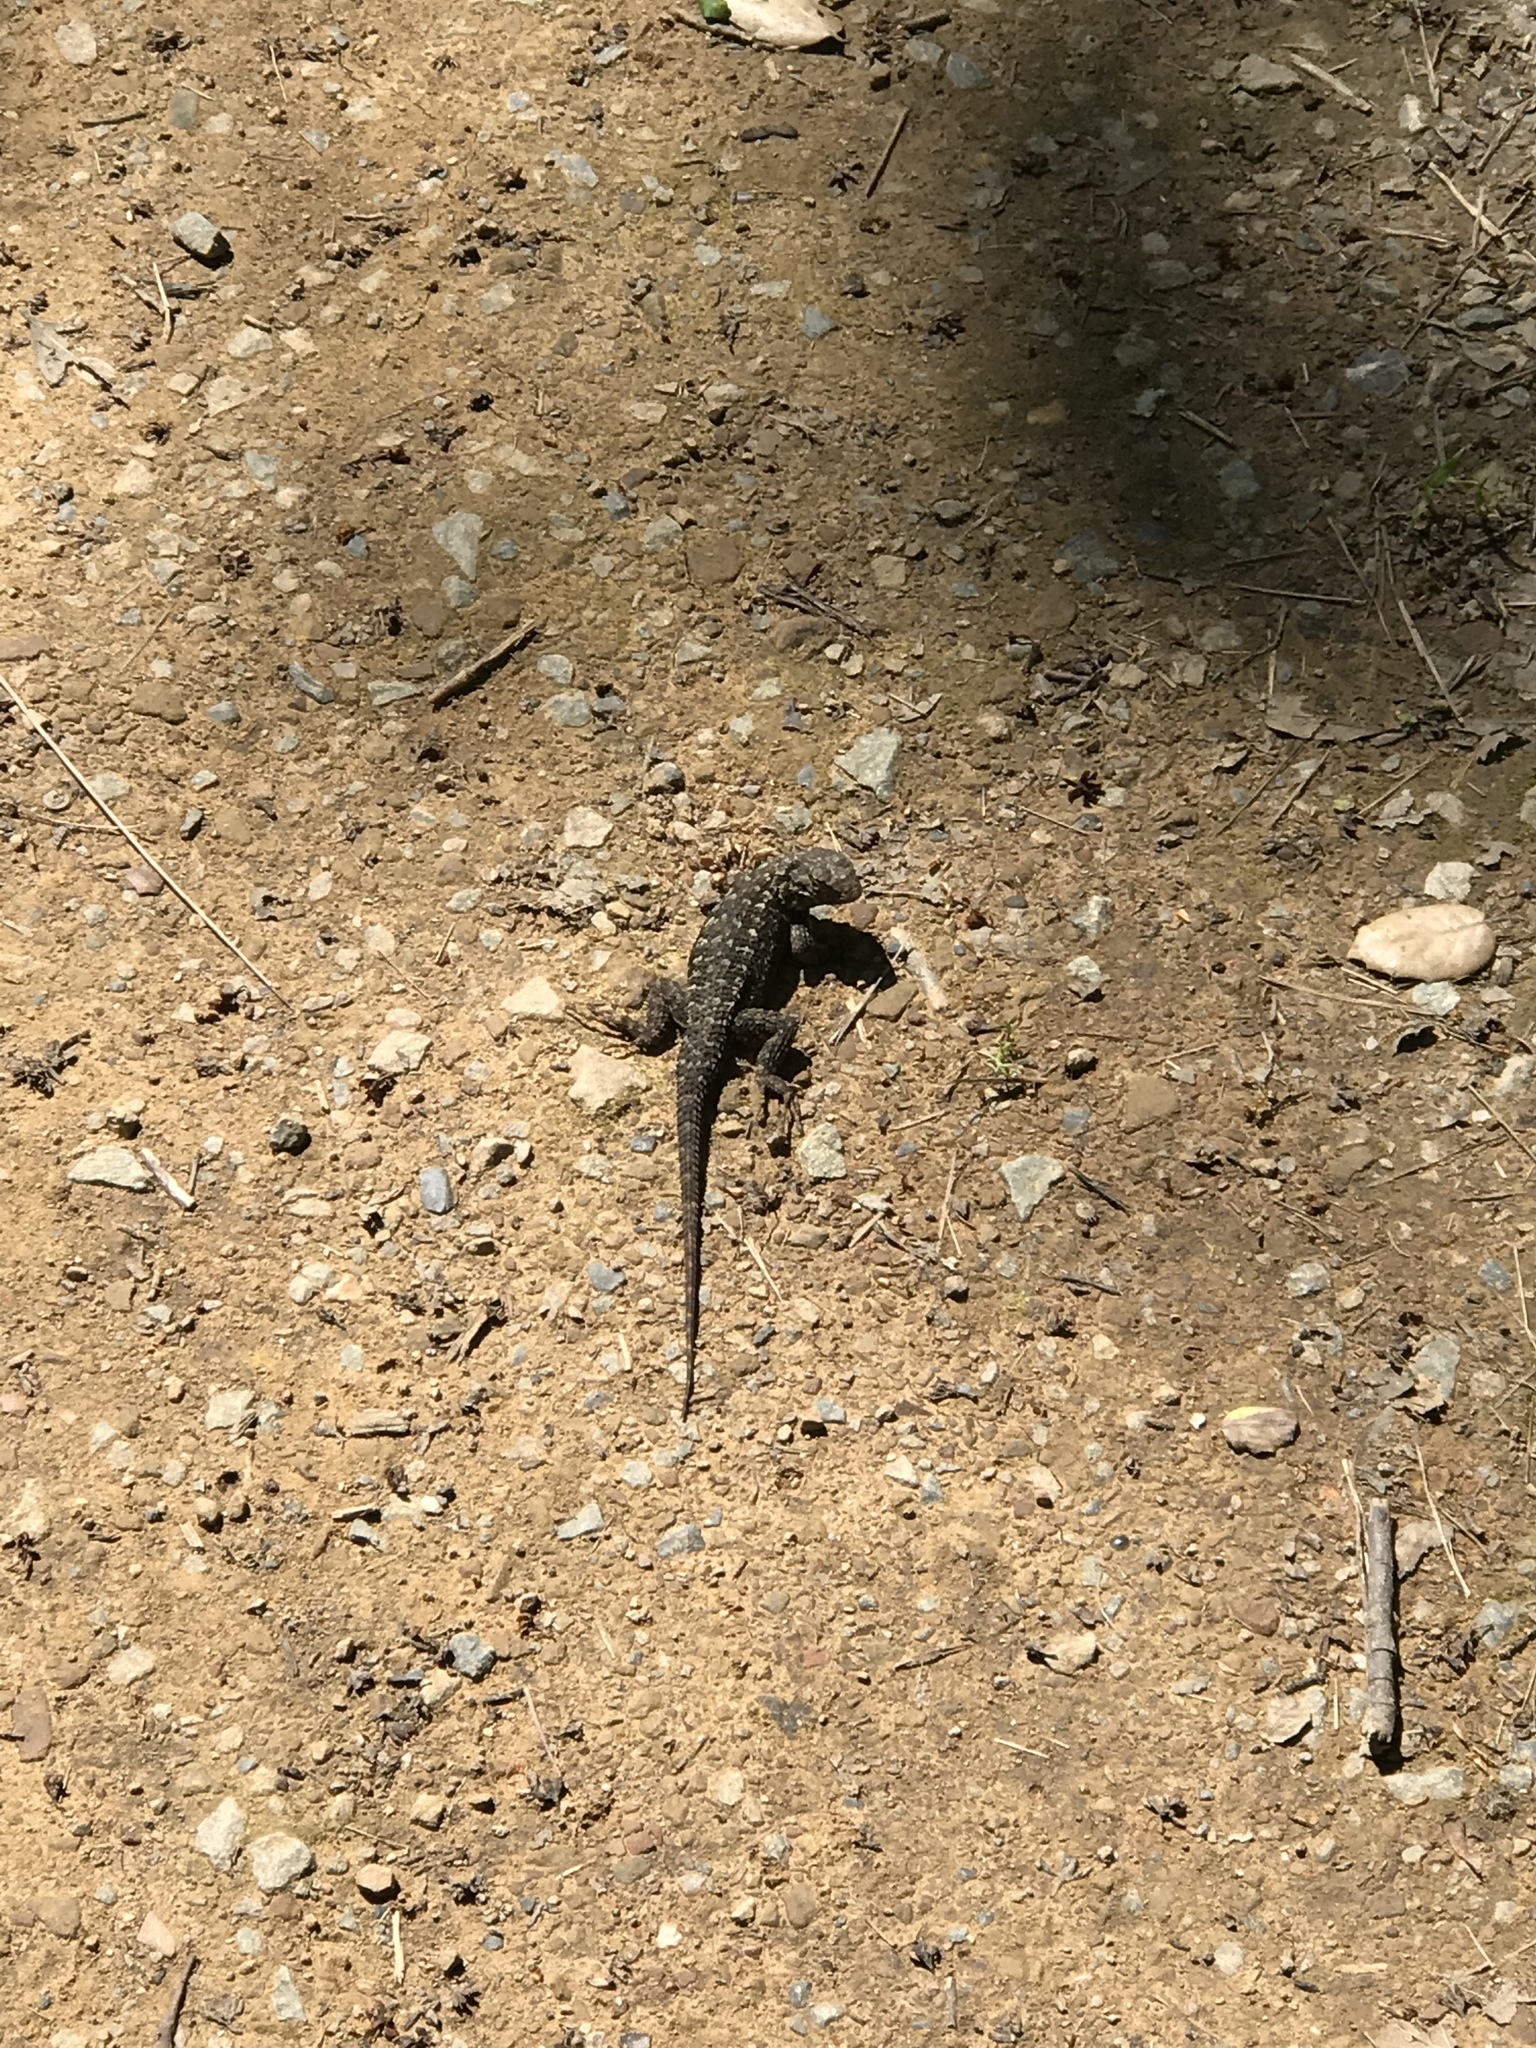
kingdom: Animalia
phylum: Chordata
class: Squamata
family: Phrynosomatidae
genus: Sceloporus
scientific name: Sceloporus occidentalis
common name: Western fence lizard
